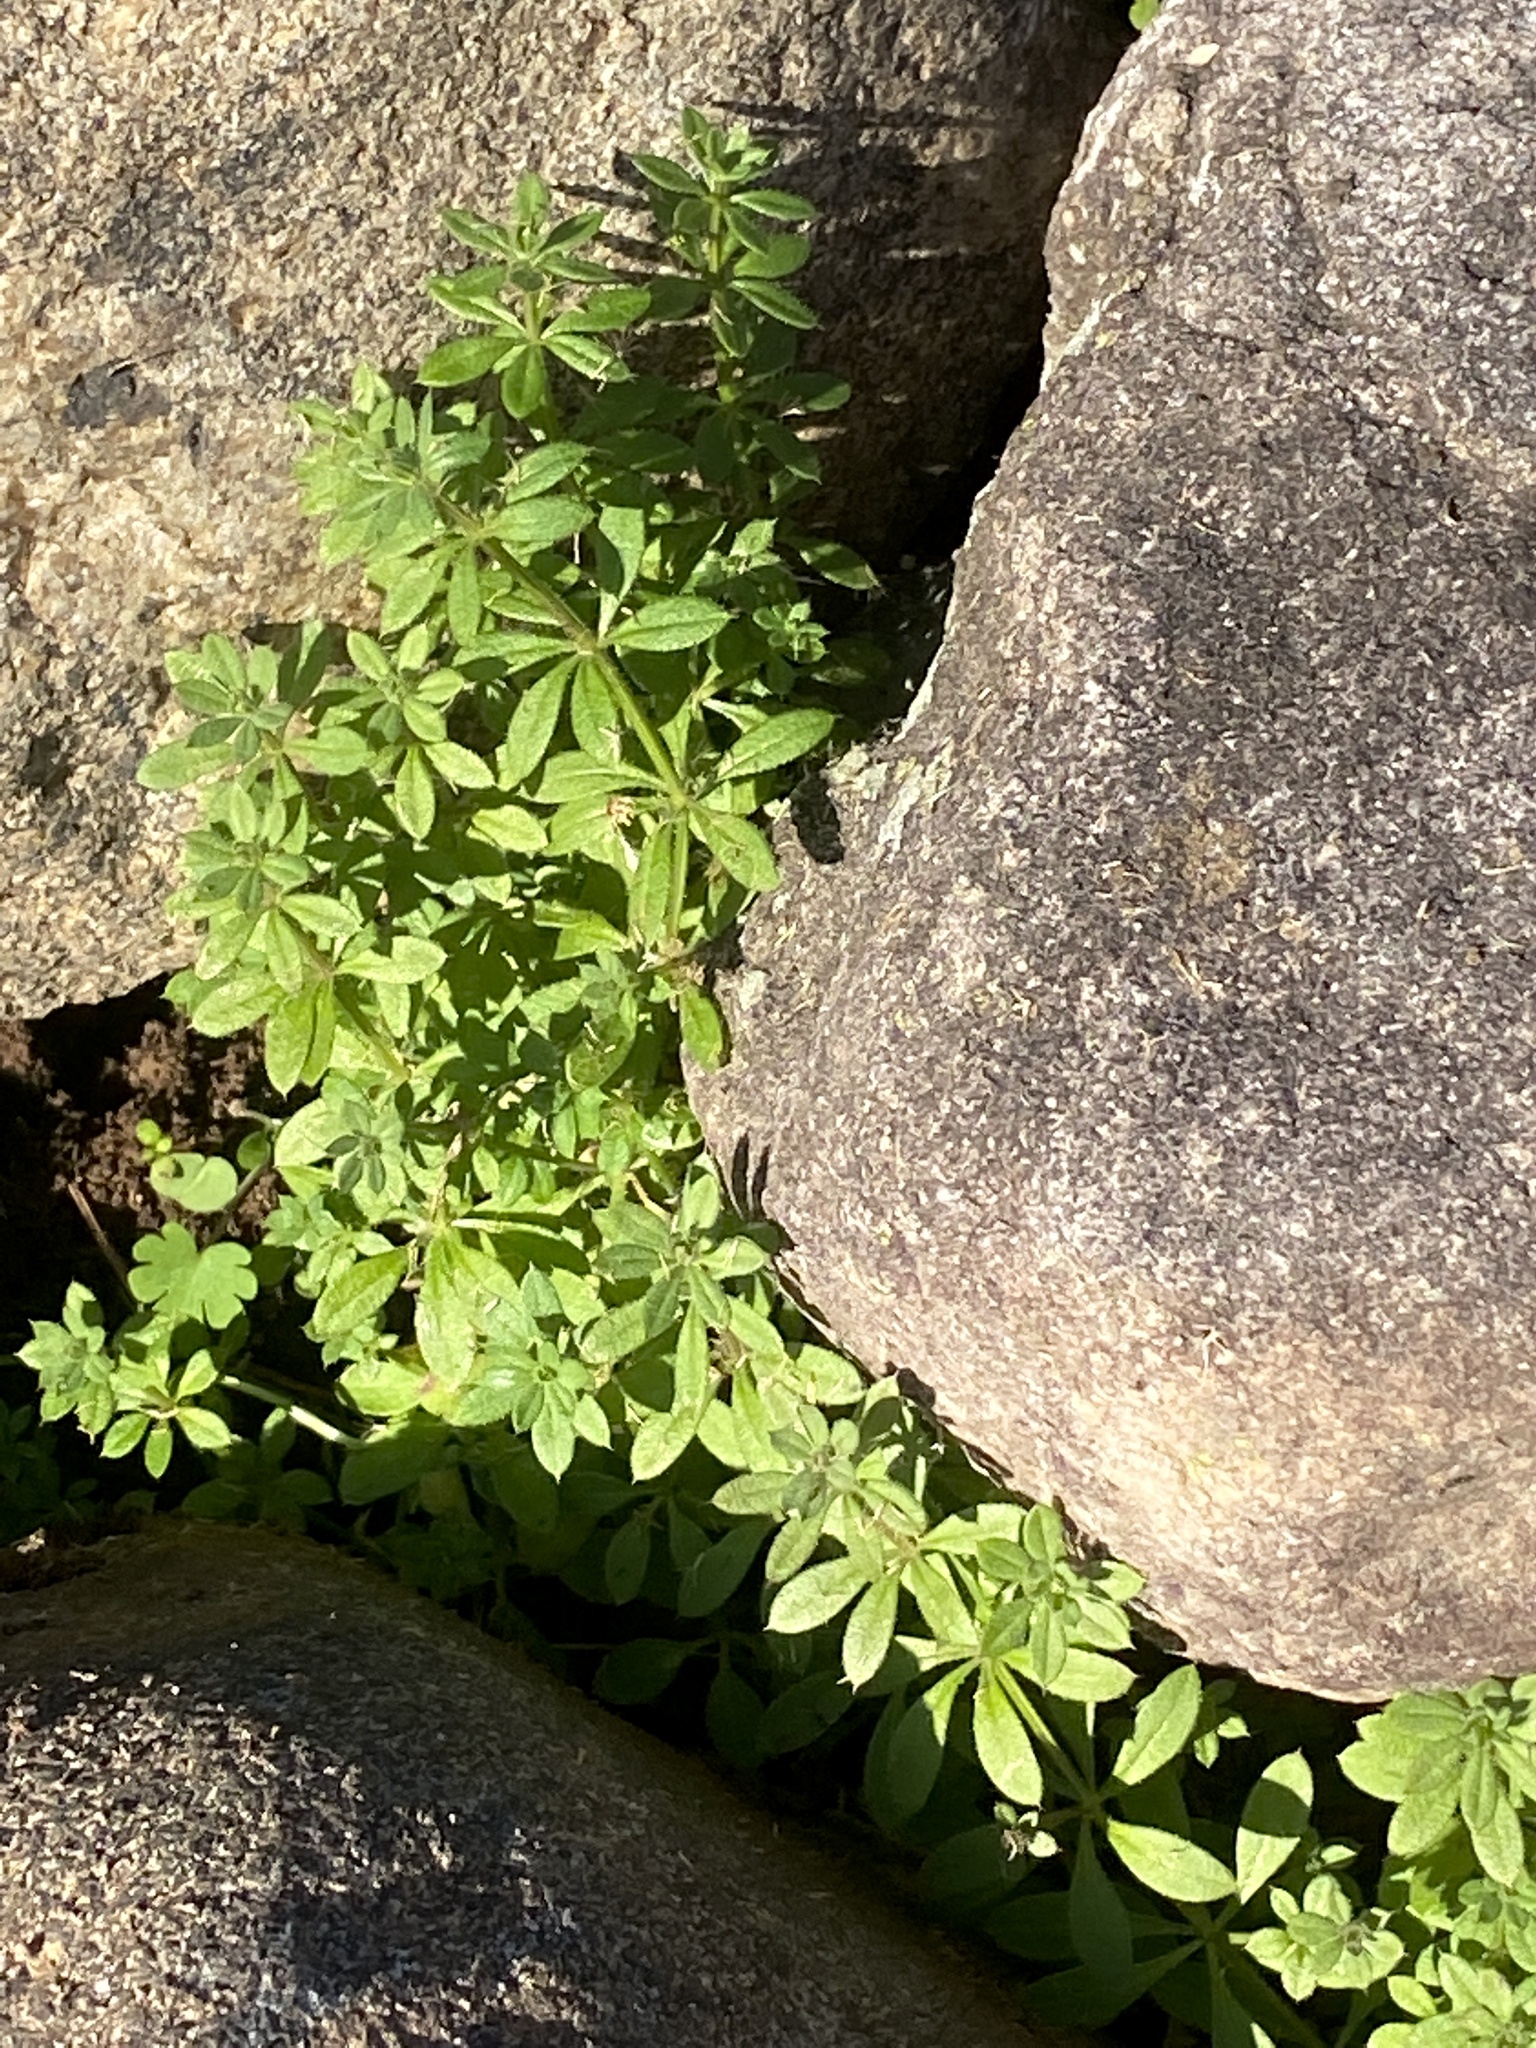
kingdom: Plantae
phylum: Tracheophyta
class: Magnoliopsida
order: Gentianales
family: Rubiaceae
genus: Galium
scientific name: Galium aparine
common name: Cleavers
